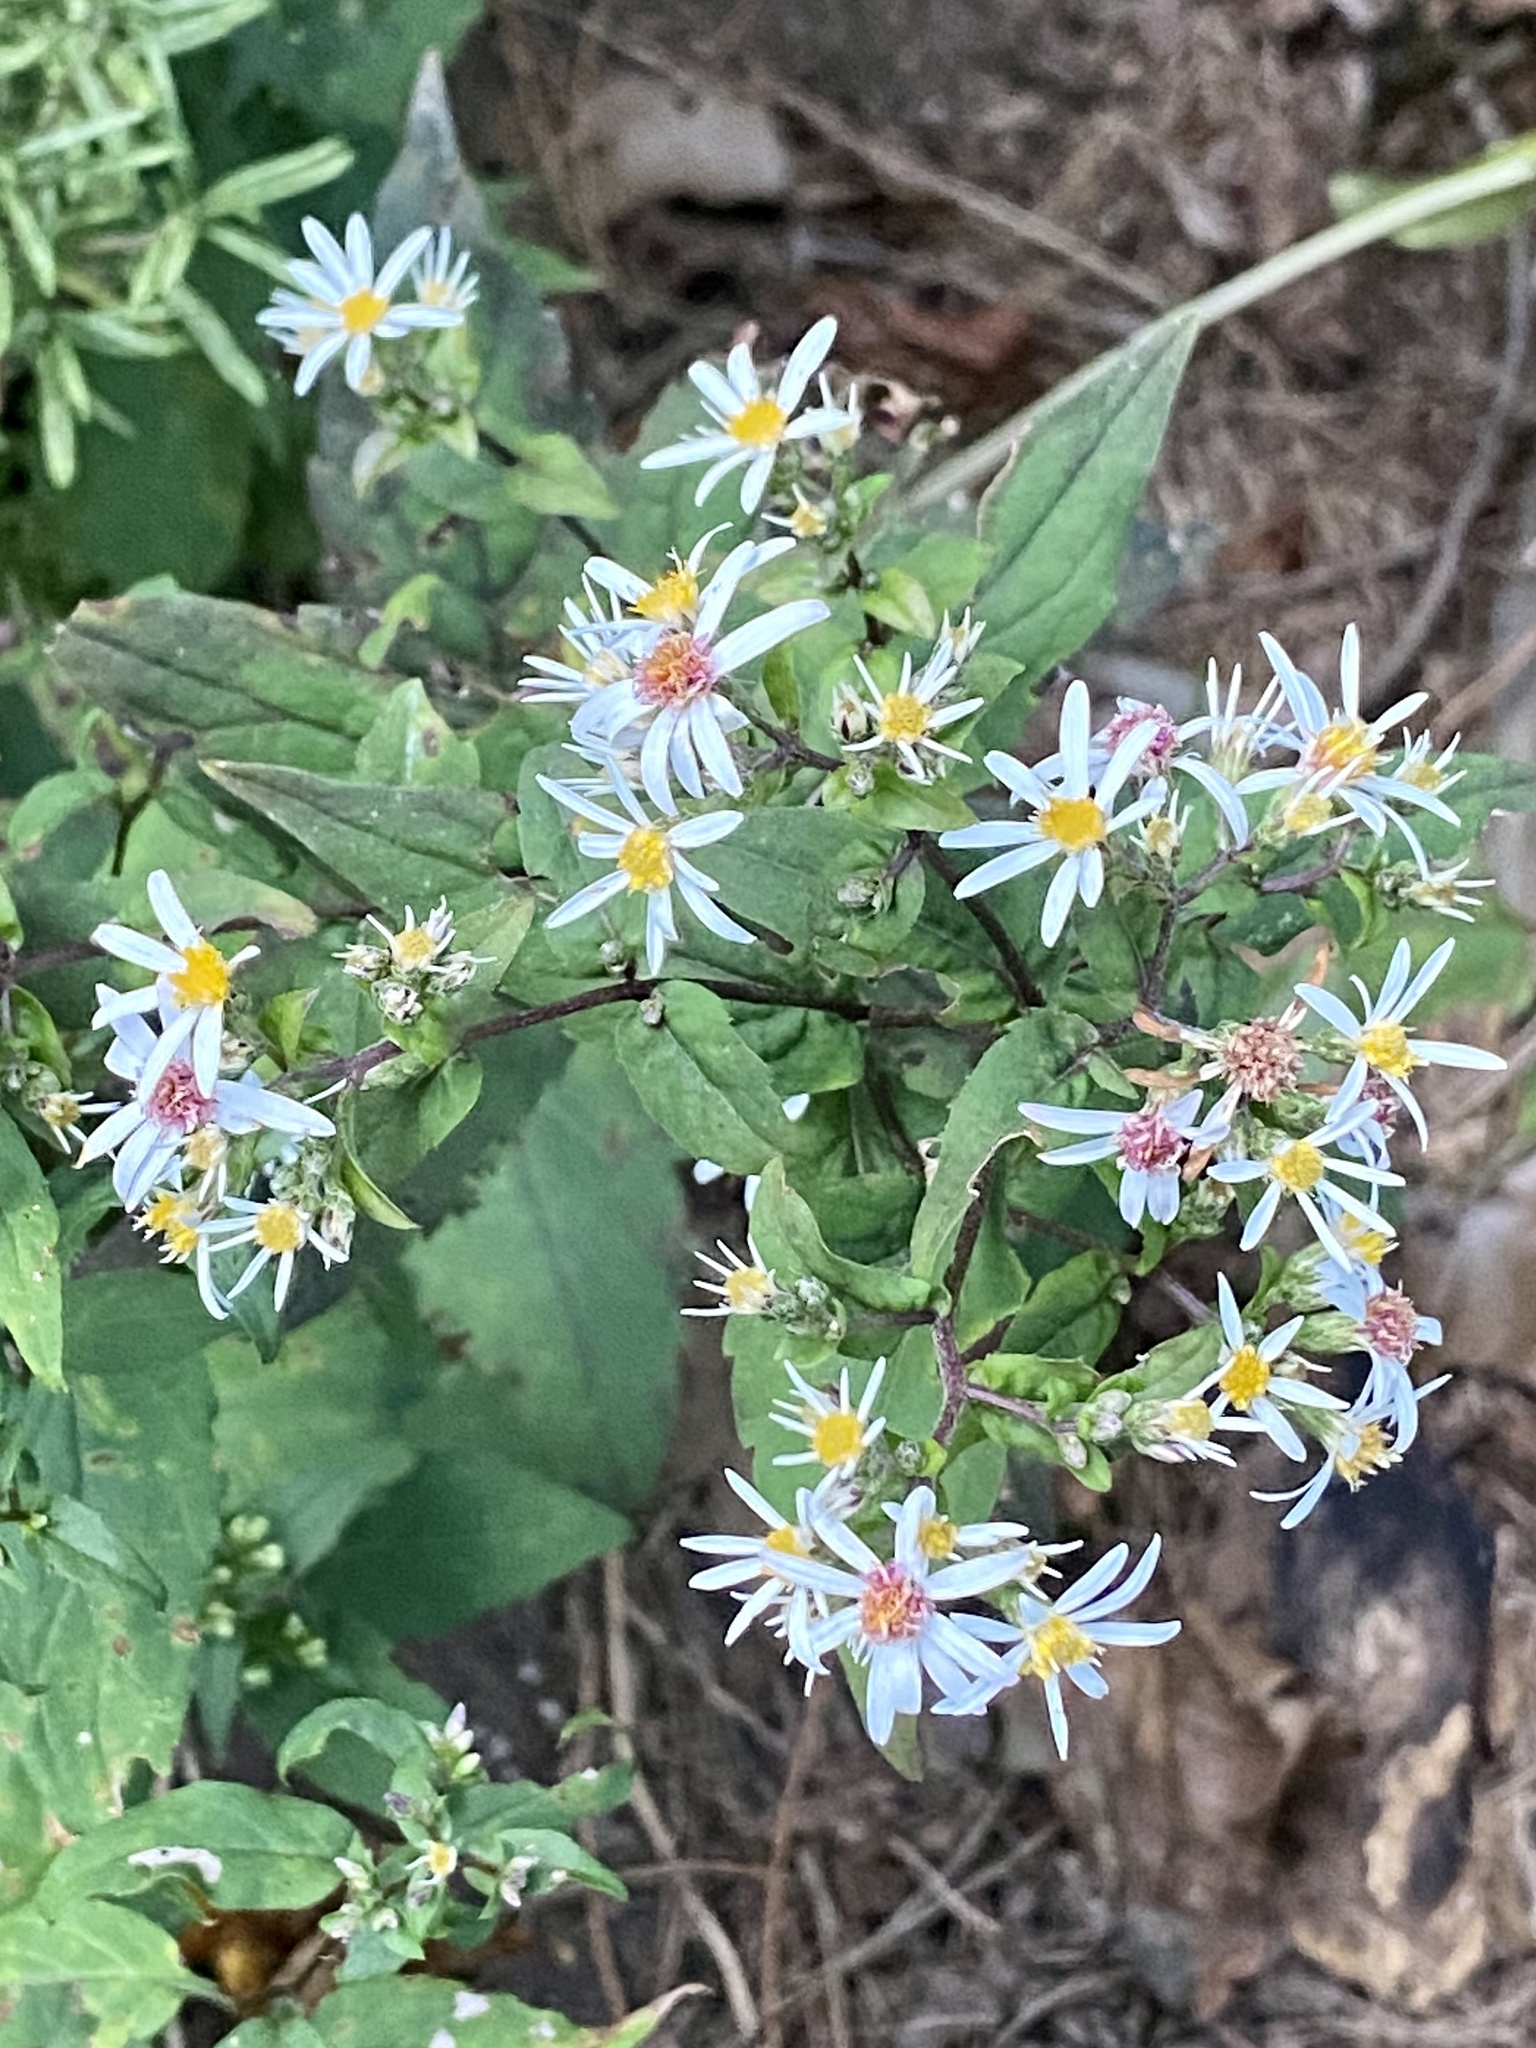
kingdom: Plantae
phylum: Tracheophyta
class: Magnoliopsida
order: Asterales
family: Asteraceae
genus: Eurybia
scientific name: Eurybia divaricata
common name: White wood aster
